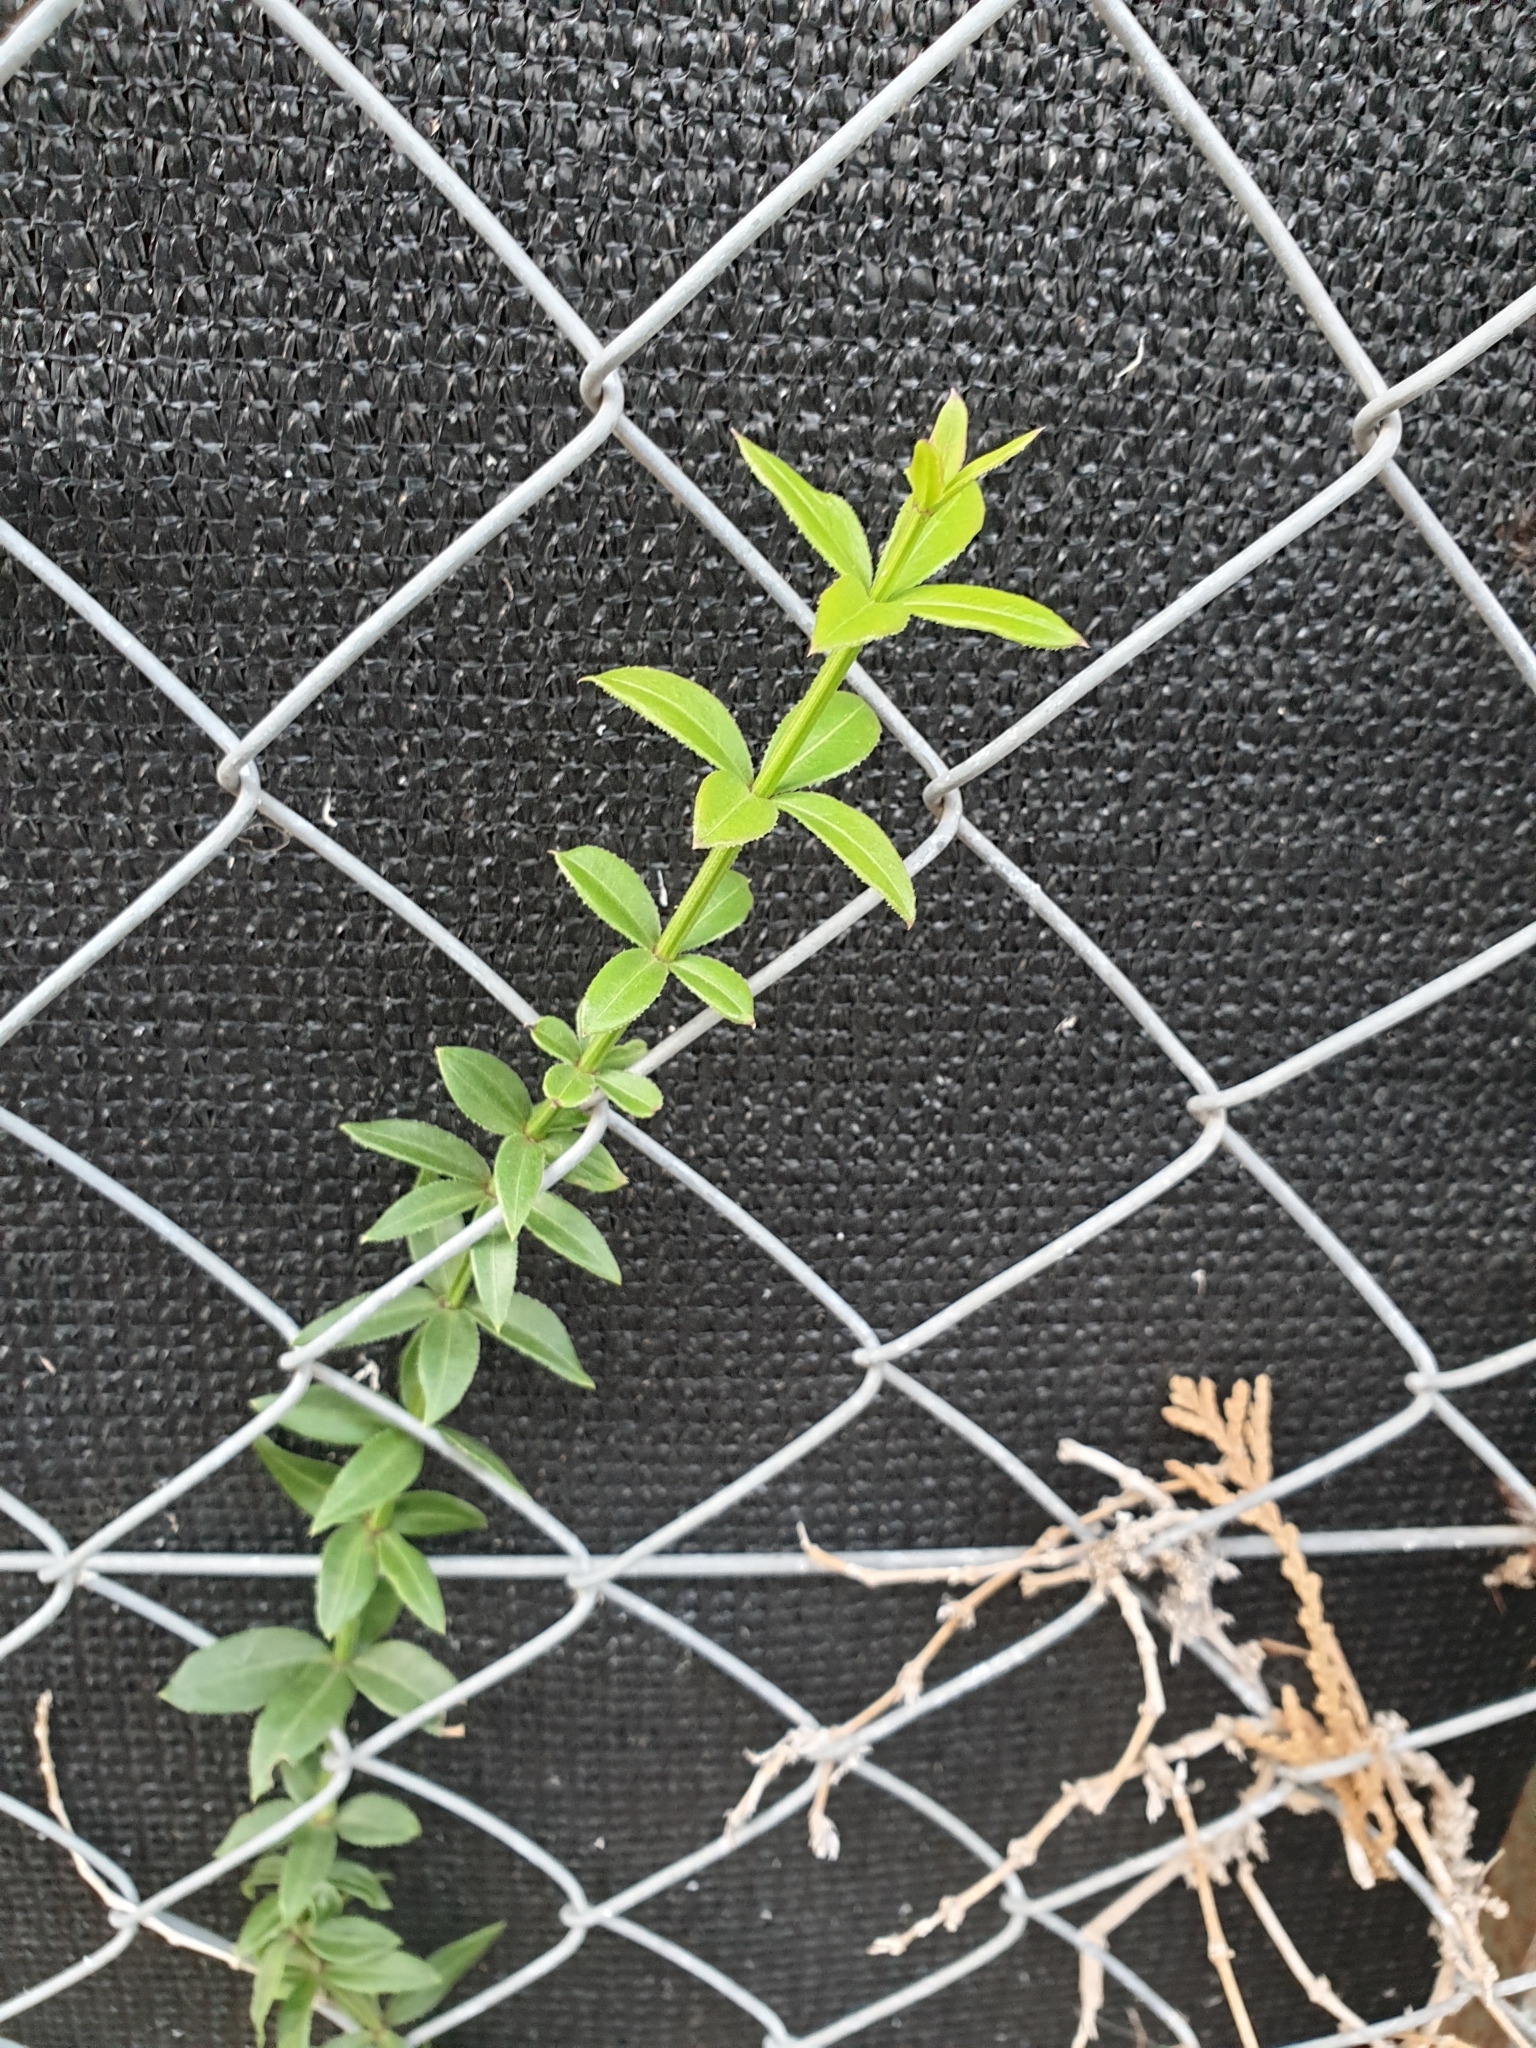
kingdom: Plantae
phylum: Tracheophyta
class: Magnoliopsida
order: Gentianales
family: Rubiaceae
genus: Rubia
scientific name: Rubia peregrina
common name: Wild madder
